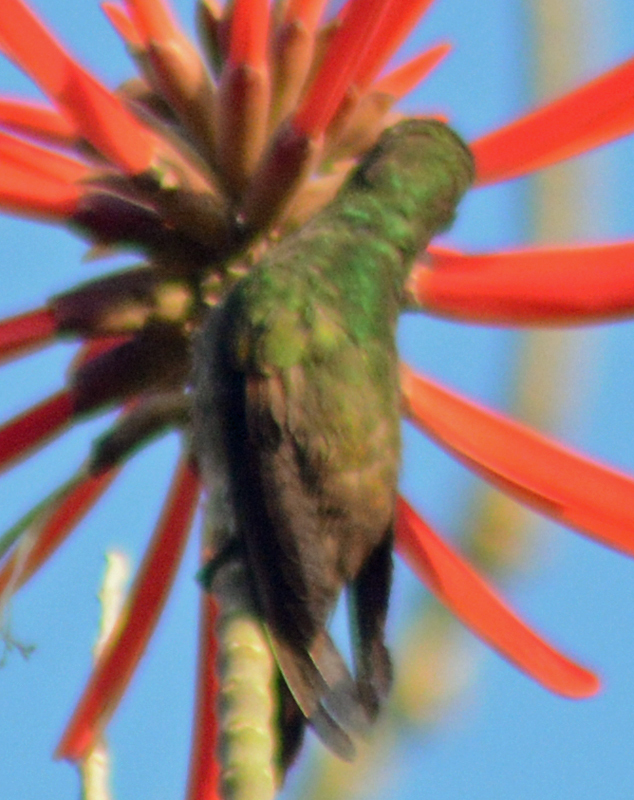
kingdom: Animalia
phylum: Chordata
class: Aves
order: Apodiformes
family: Trochilidae
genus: Saucerottia
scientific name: Saucerottia beryllina
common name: Berylline hummingbird
